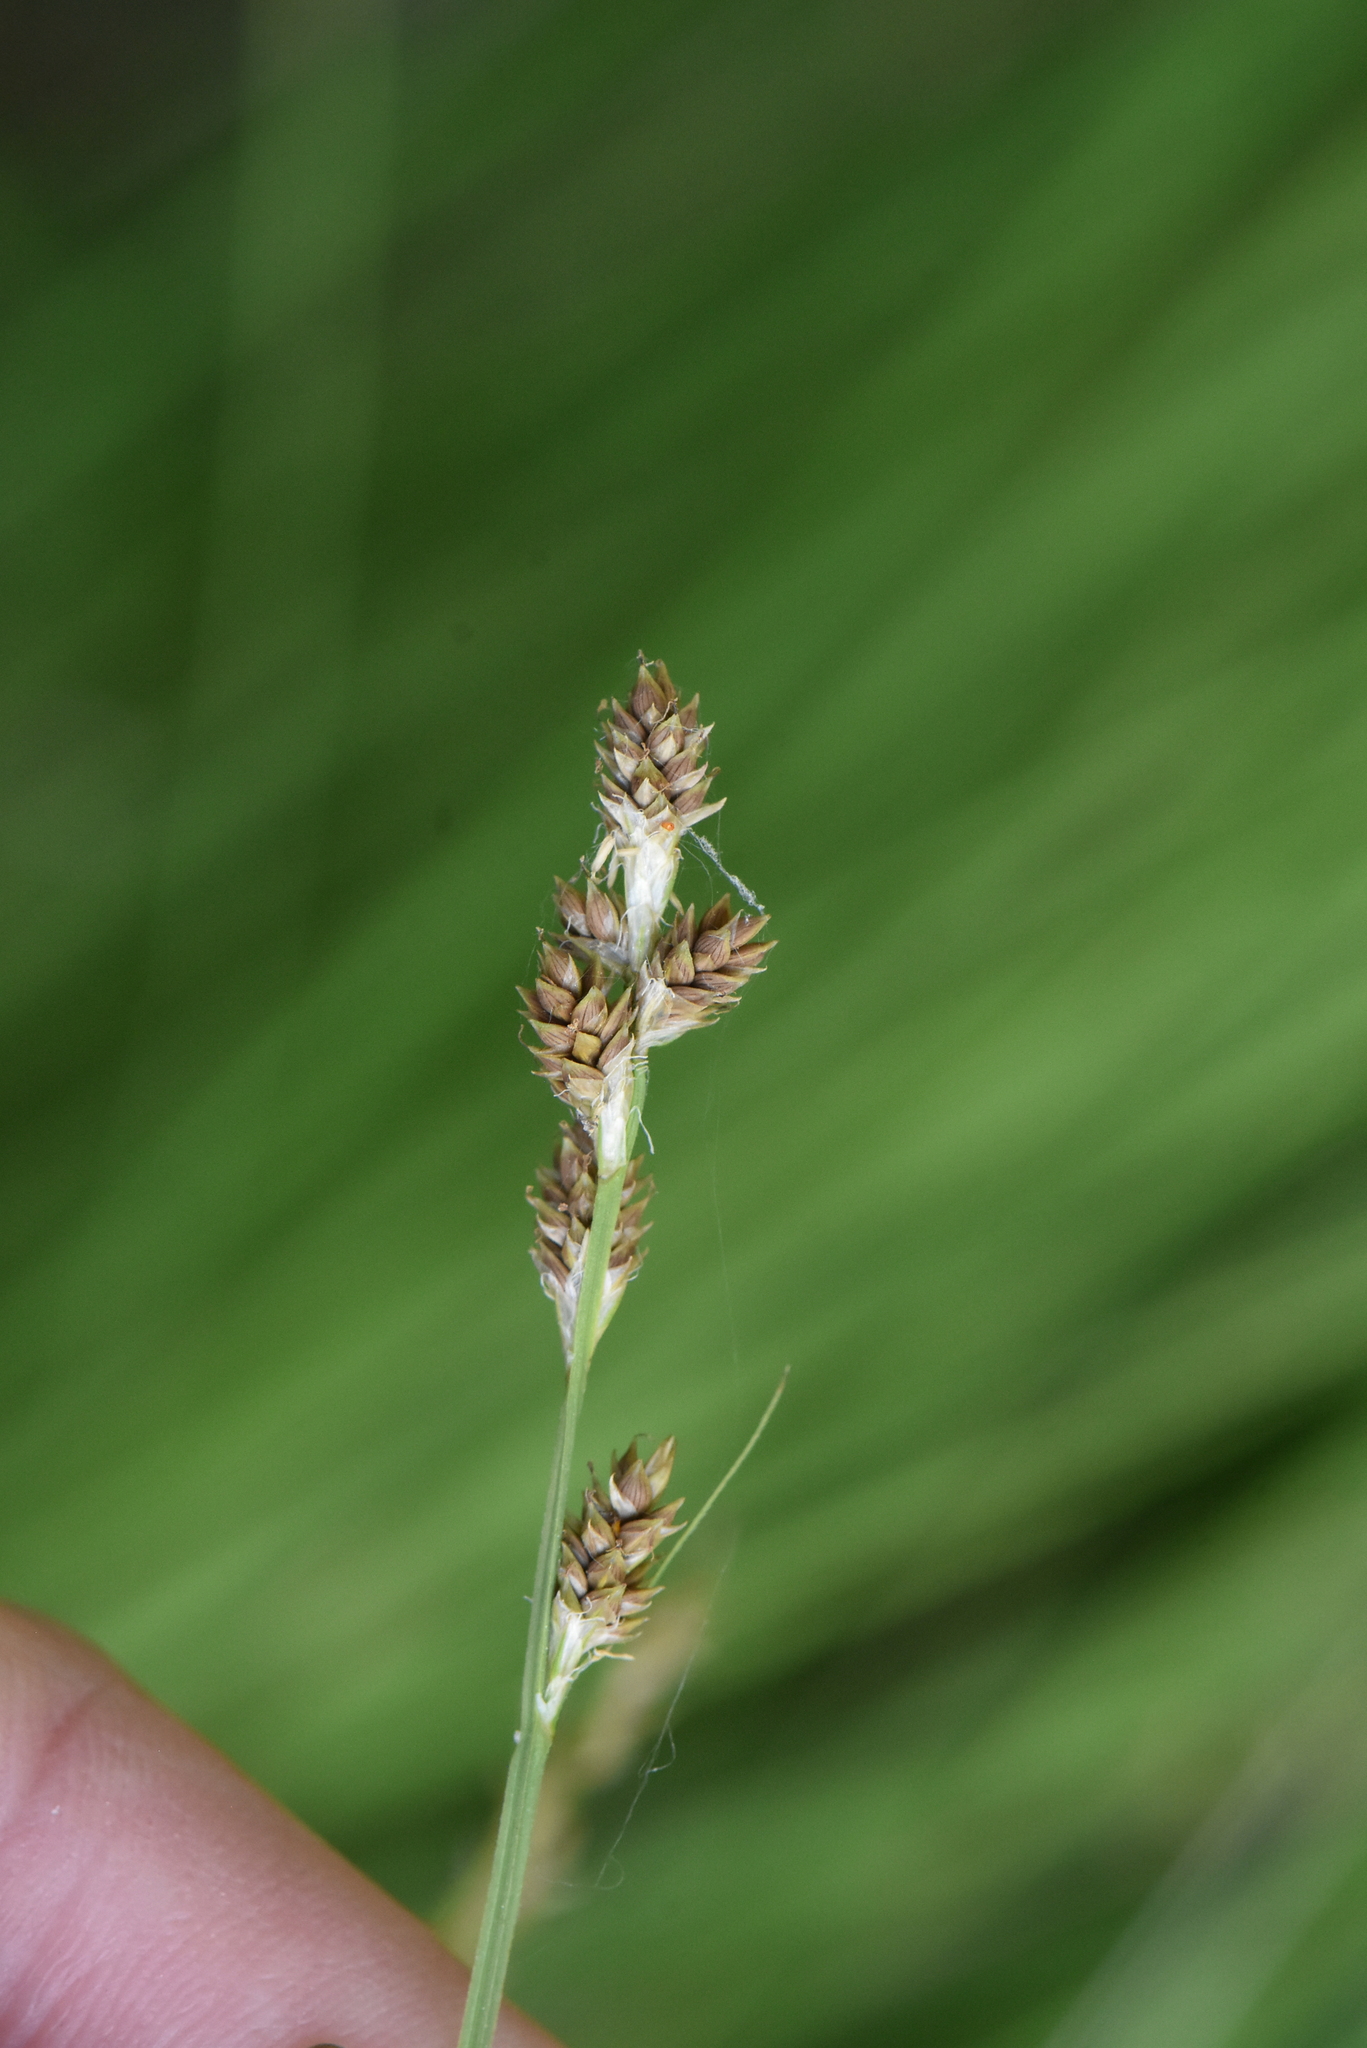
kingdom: Plantae
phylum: Tracheophyta
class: Liliopsida
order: Poales
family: Cyperaceae
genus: Carex
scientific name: Carex canescens
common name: White sedge
